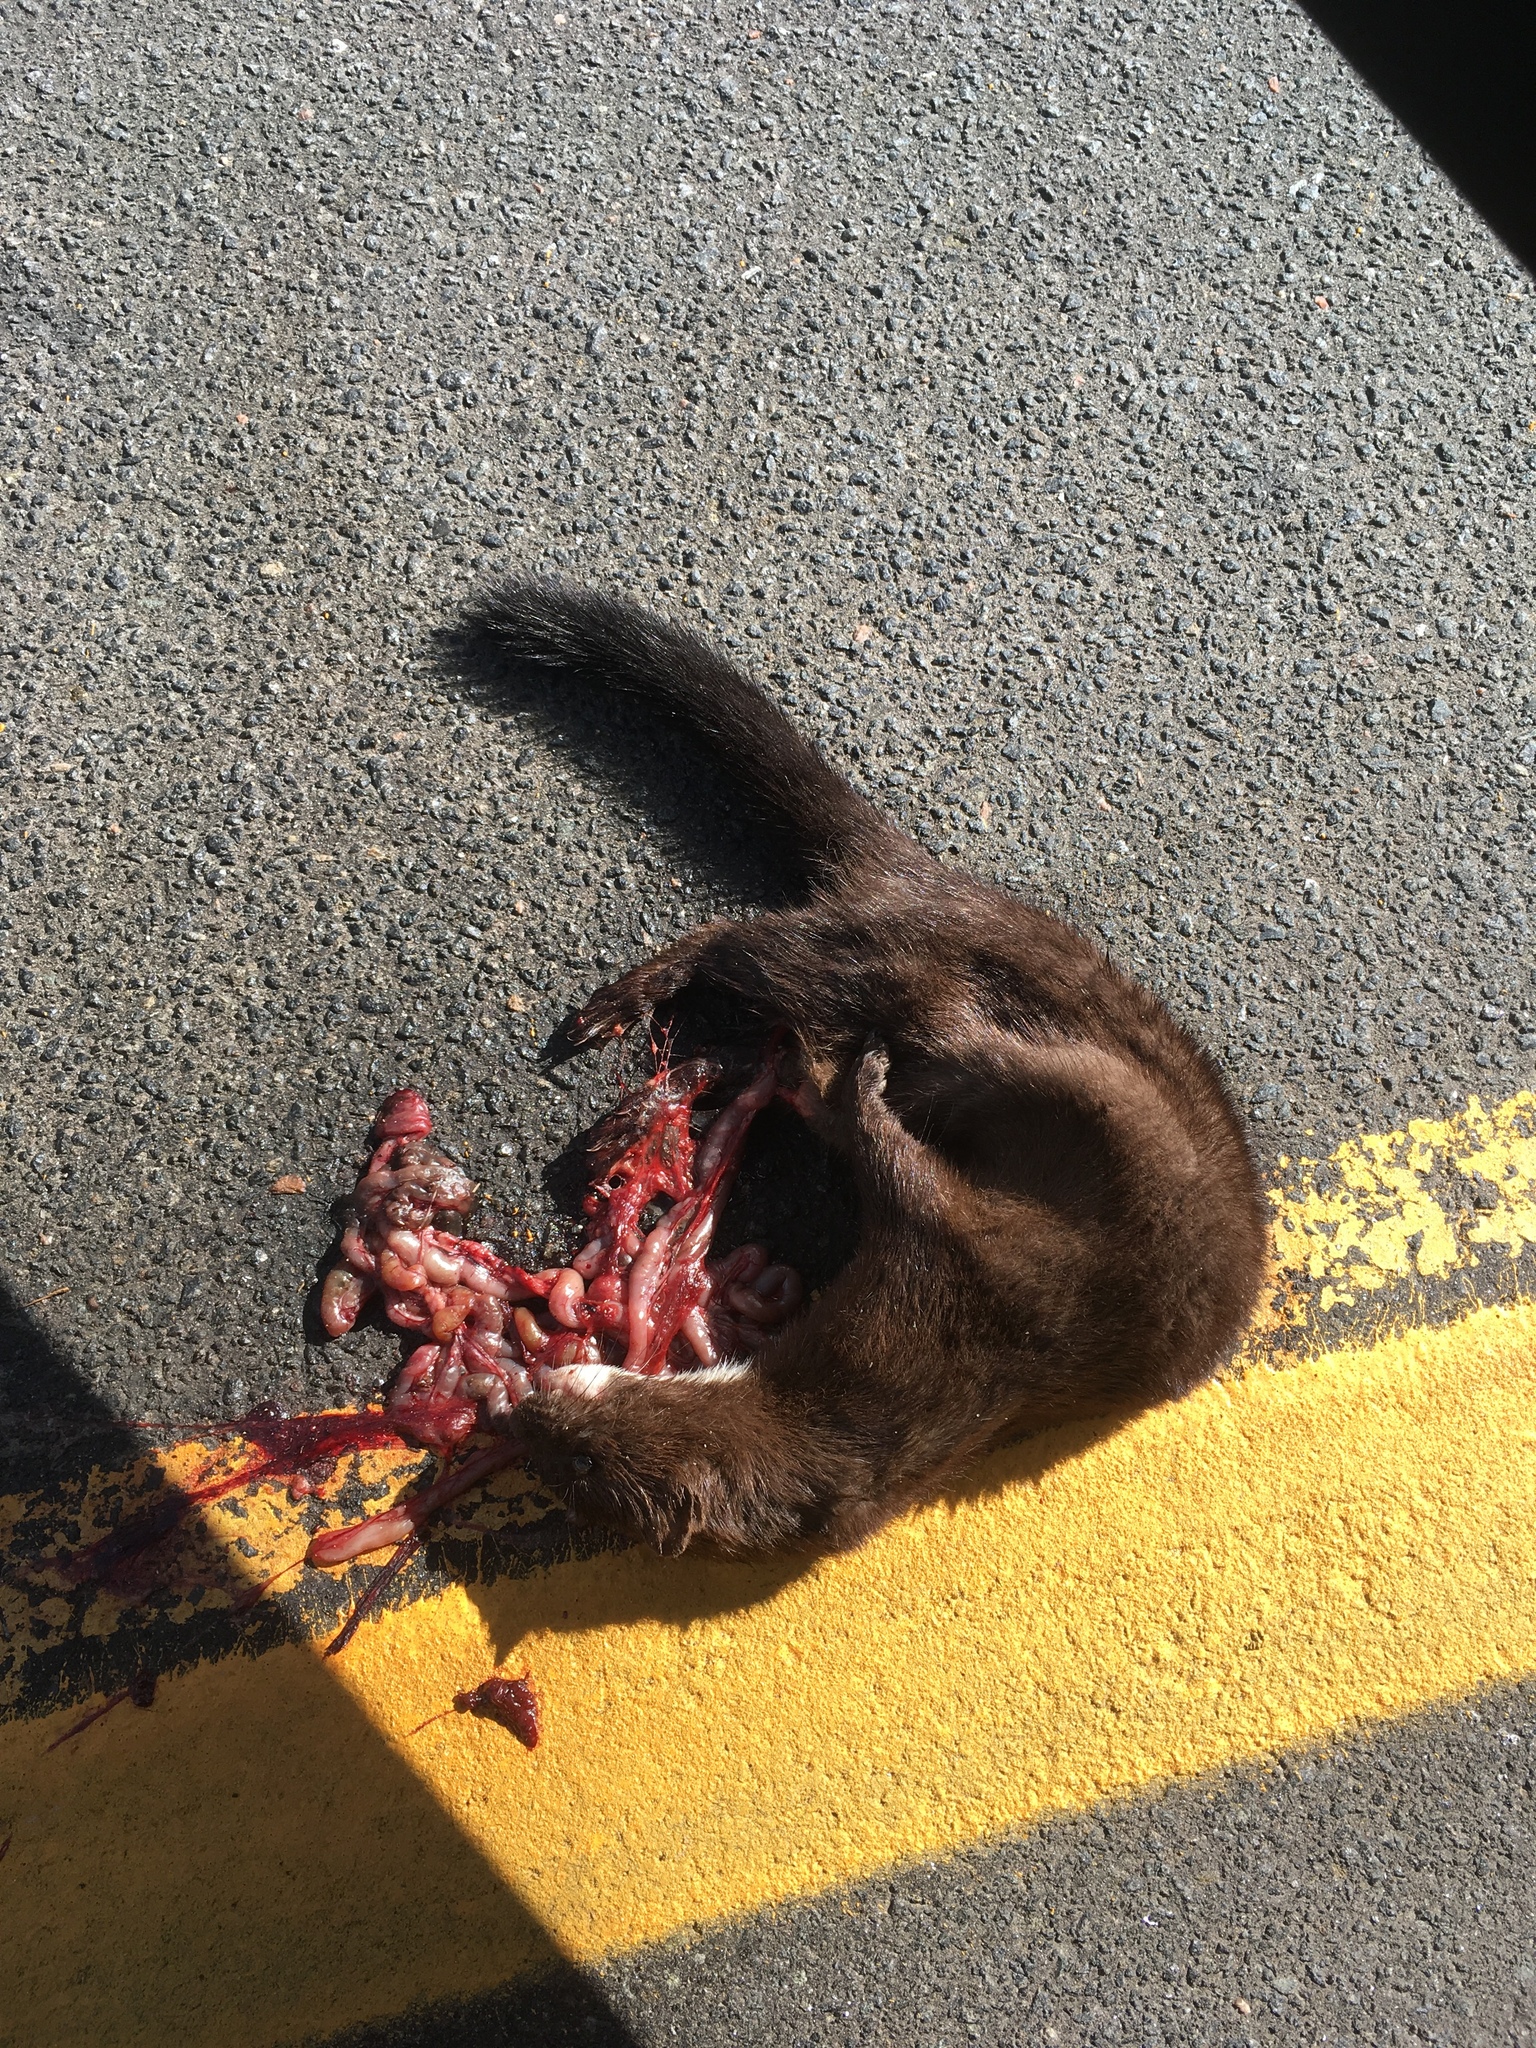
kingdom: Animalia
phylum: Chordata
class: Mammalia
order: Carnivora
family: Mustelidae
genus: Mustela
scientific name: Mustela
